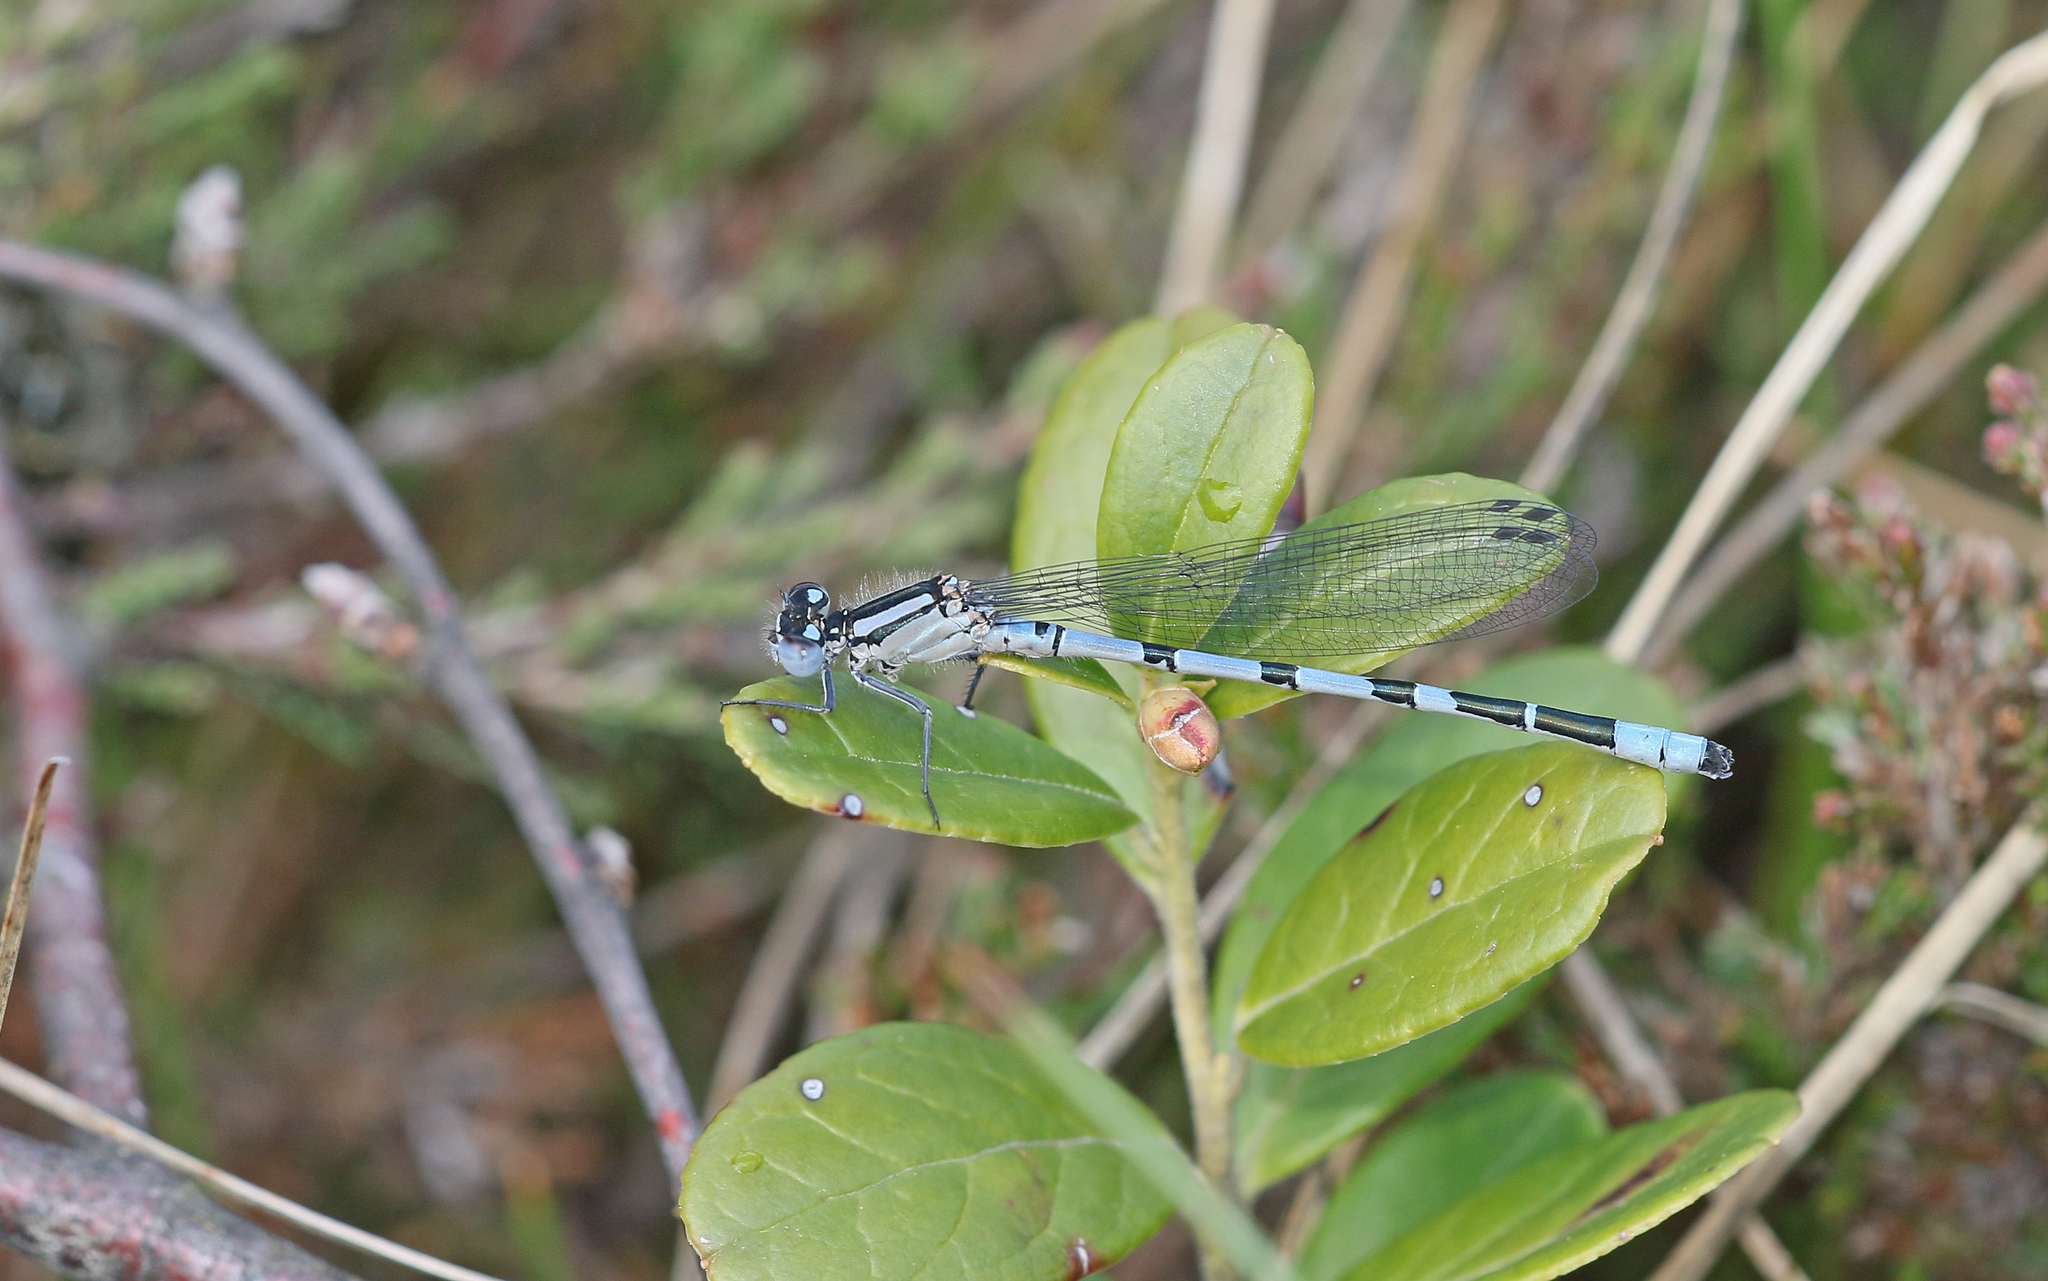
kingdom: Animalia
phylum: Arthropoda
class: Insecta
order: Odonata
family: Coenagrionidae
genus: Enallagma
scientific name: Enallagma cyathigerum
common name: Common blue damselfly
